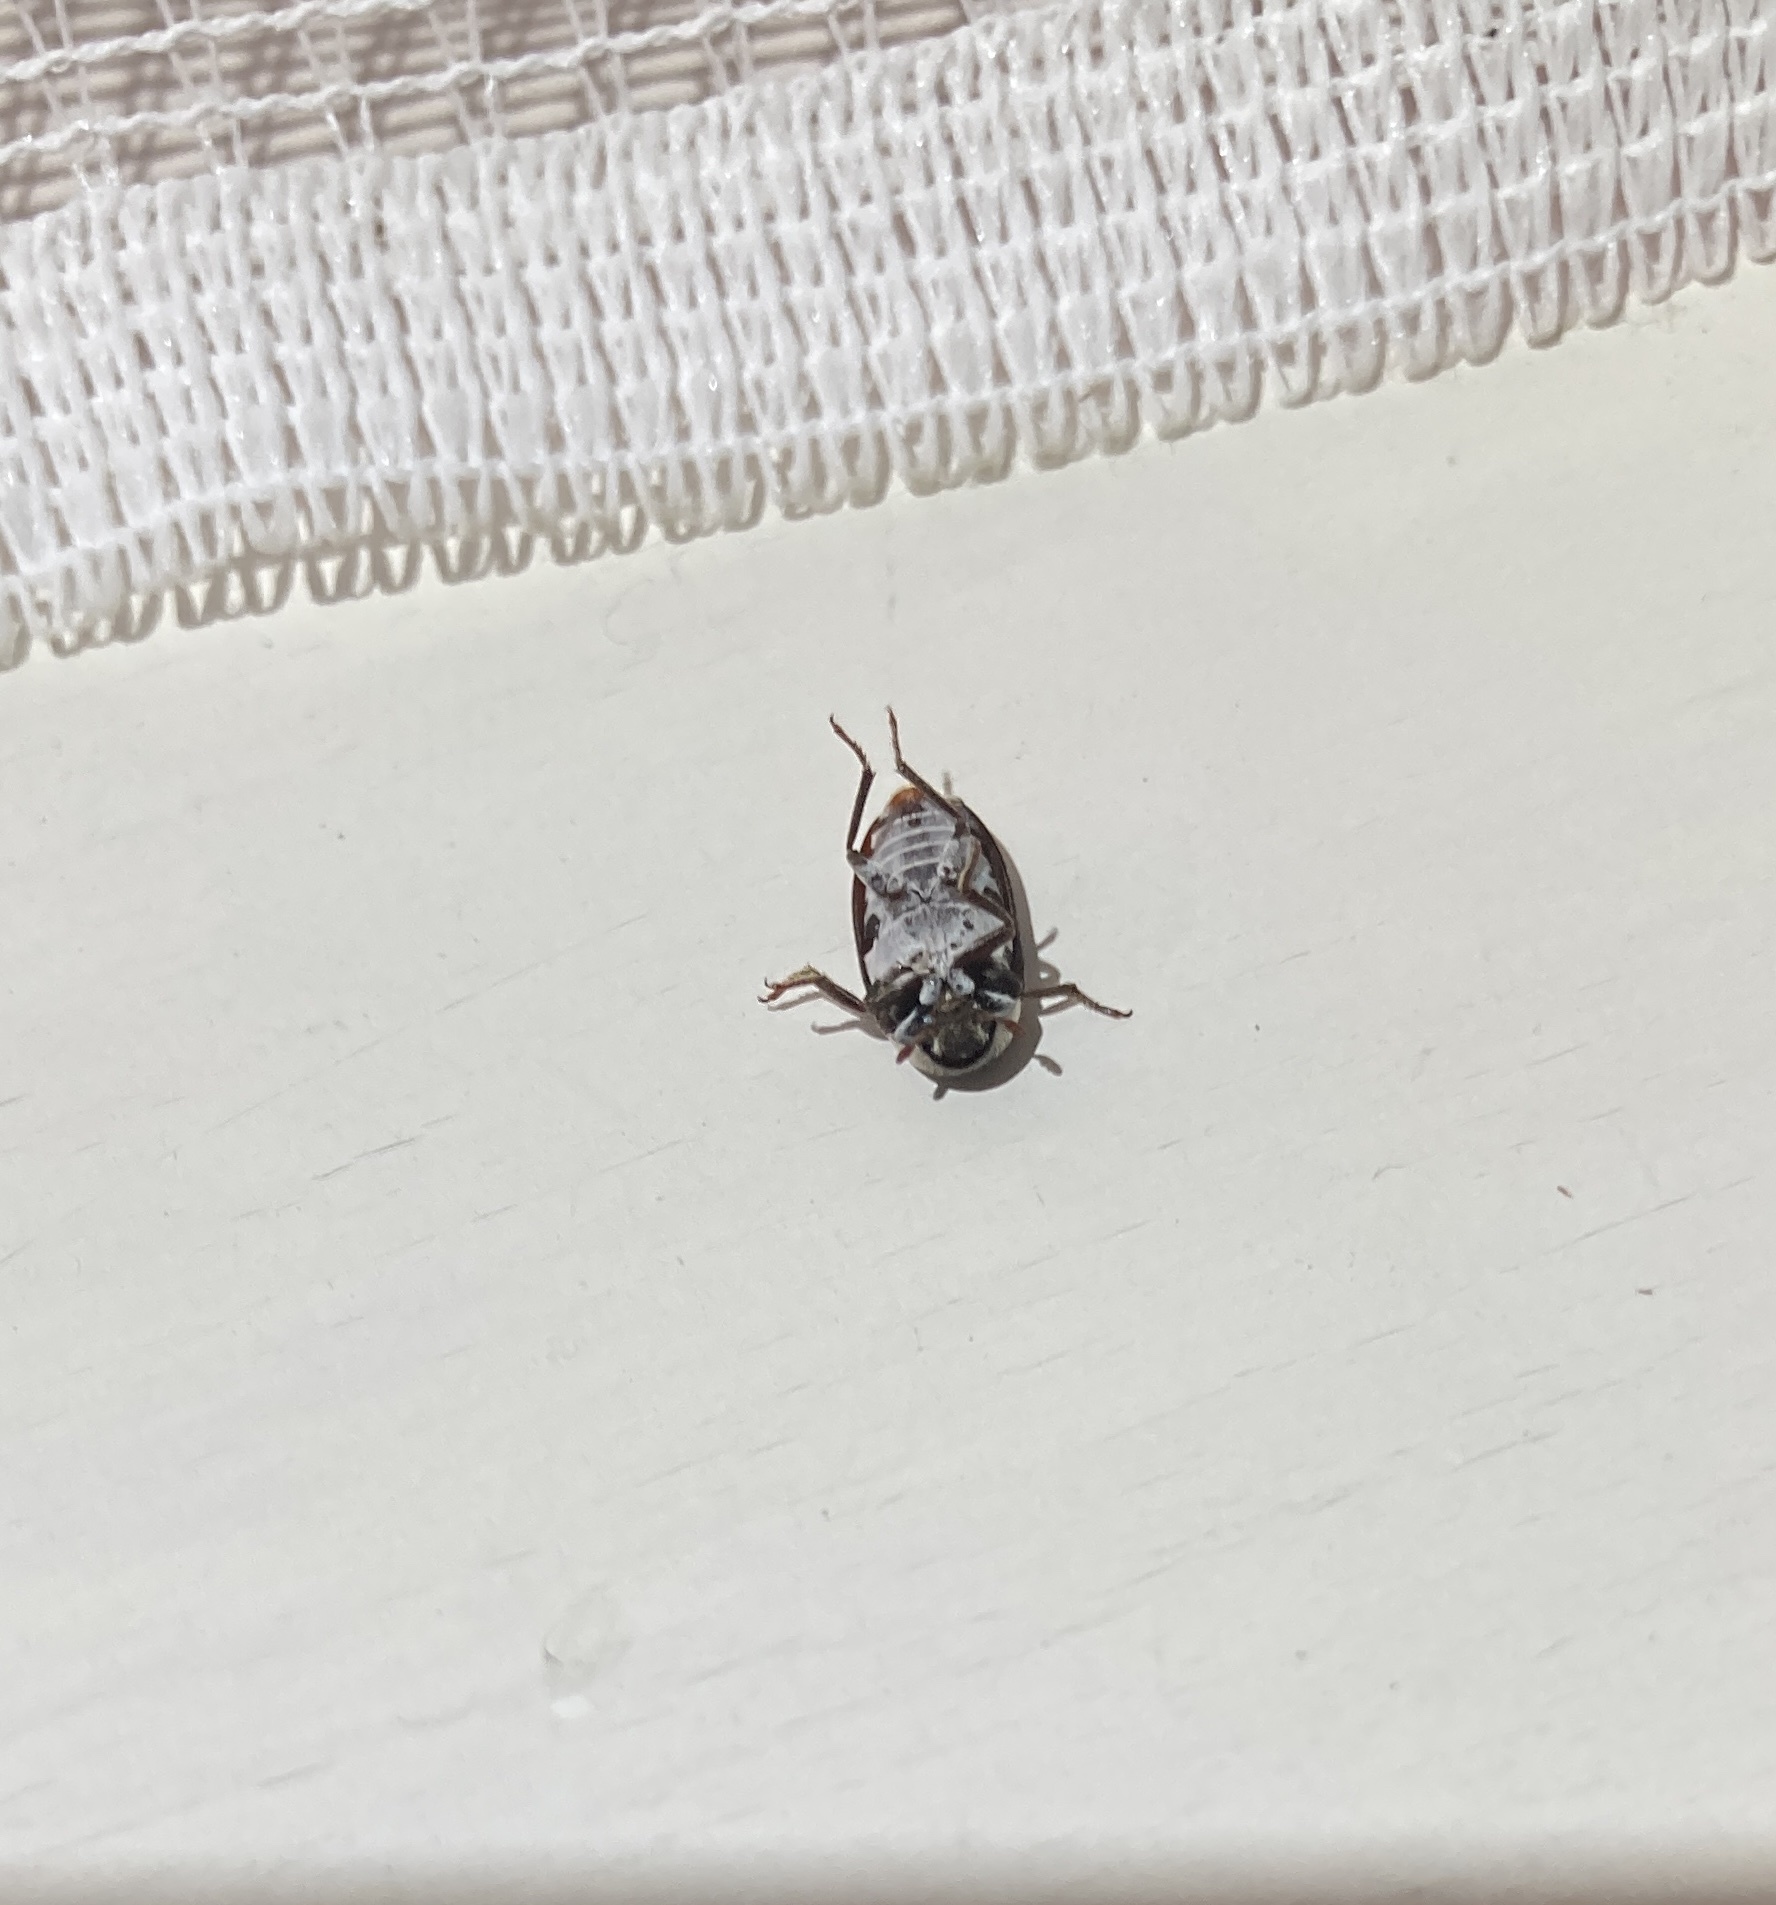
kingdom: Animalia
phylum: Arthropoda
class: Insecta
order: Coleoptera
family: Dermestidae
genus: Dermestes
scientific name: Dermestes maculatus
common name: Hide beetle
